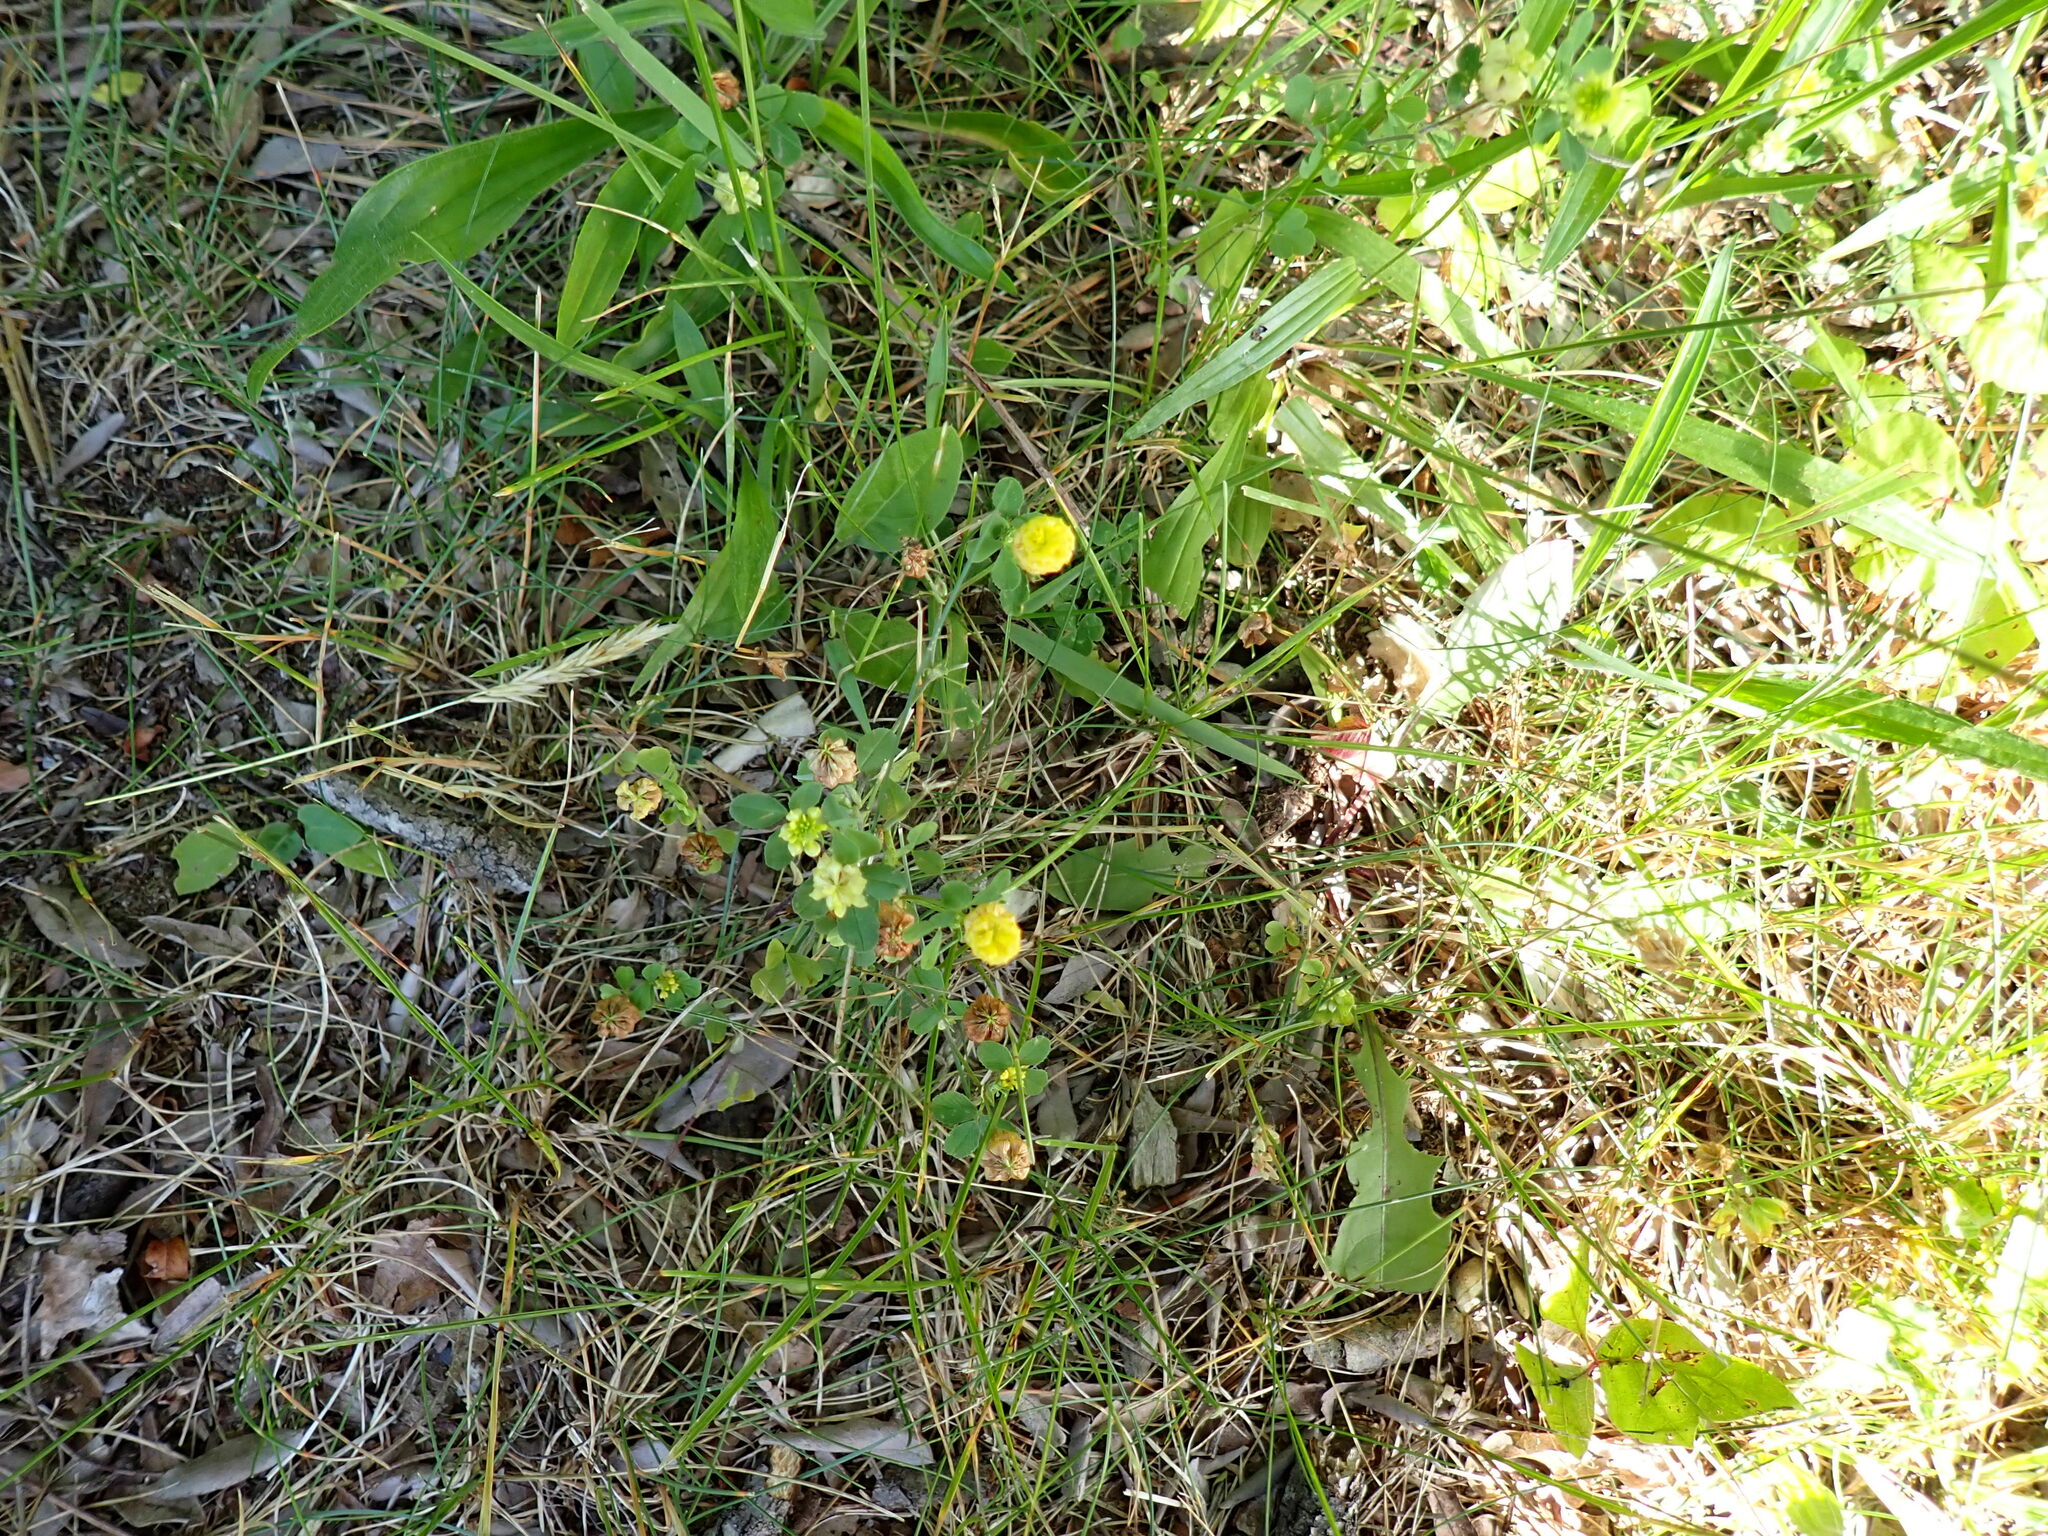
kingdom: Plantae
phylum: Tracheophyta
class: Magnoliopsida
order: Fabales
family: Fabaceae
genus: Trifolium
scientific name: Trifolium campestre
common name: Field clover
